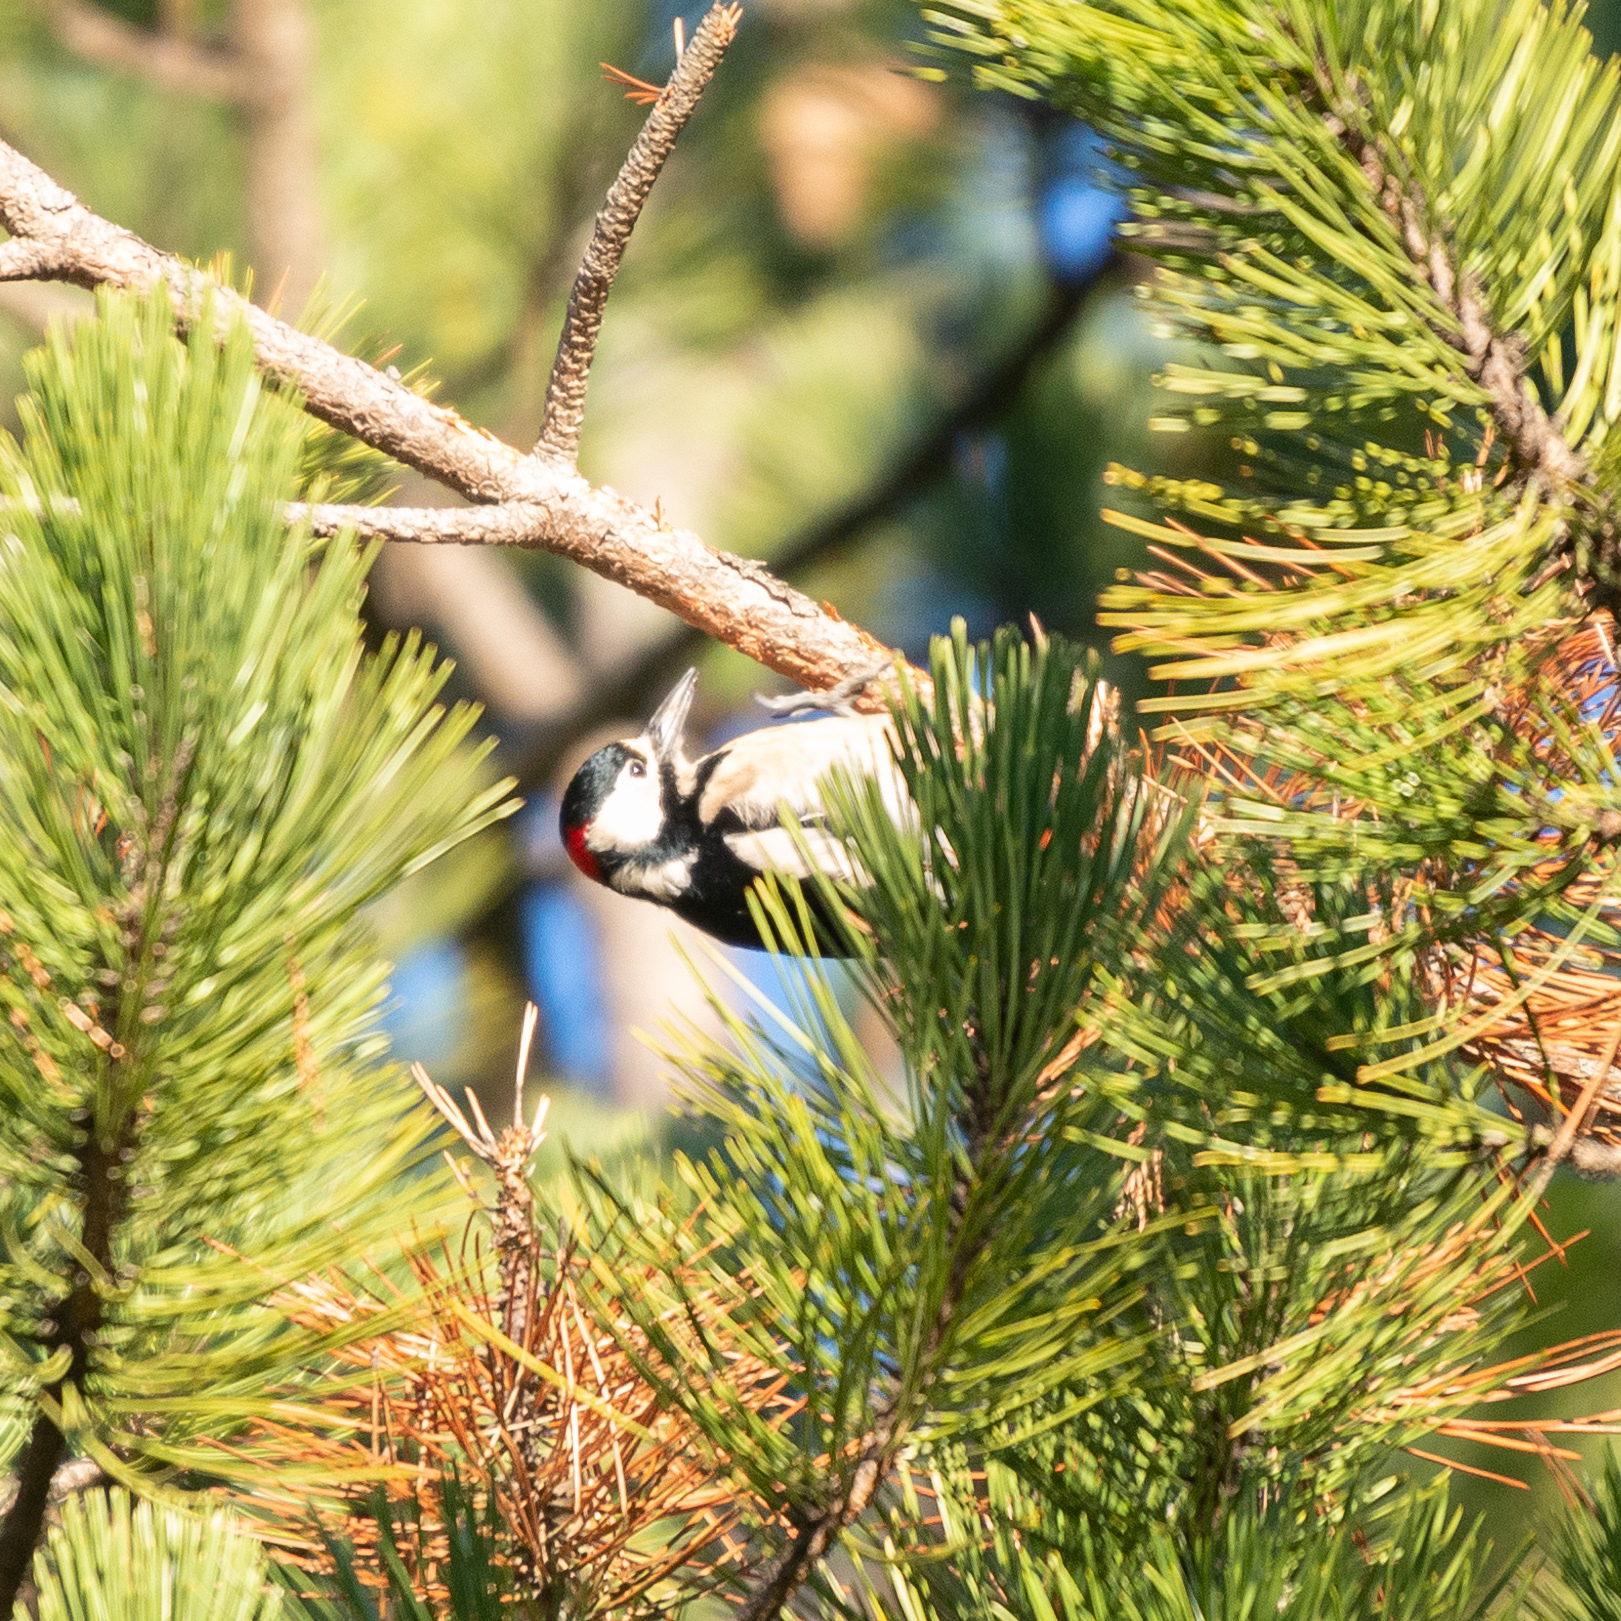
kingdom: Animalia
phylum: Chordata
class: Aves
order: Piciformes
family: Picidae
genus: Dendrocopos
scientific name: Dendrocopos major
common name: Great spotted woodpecker
